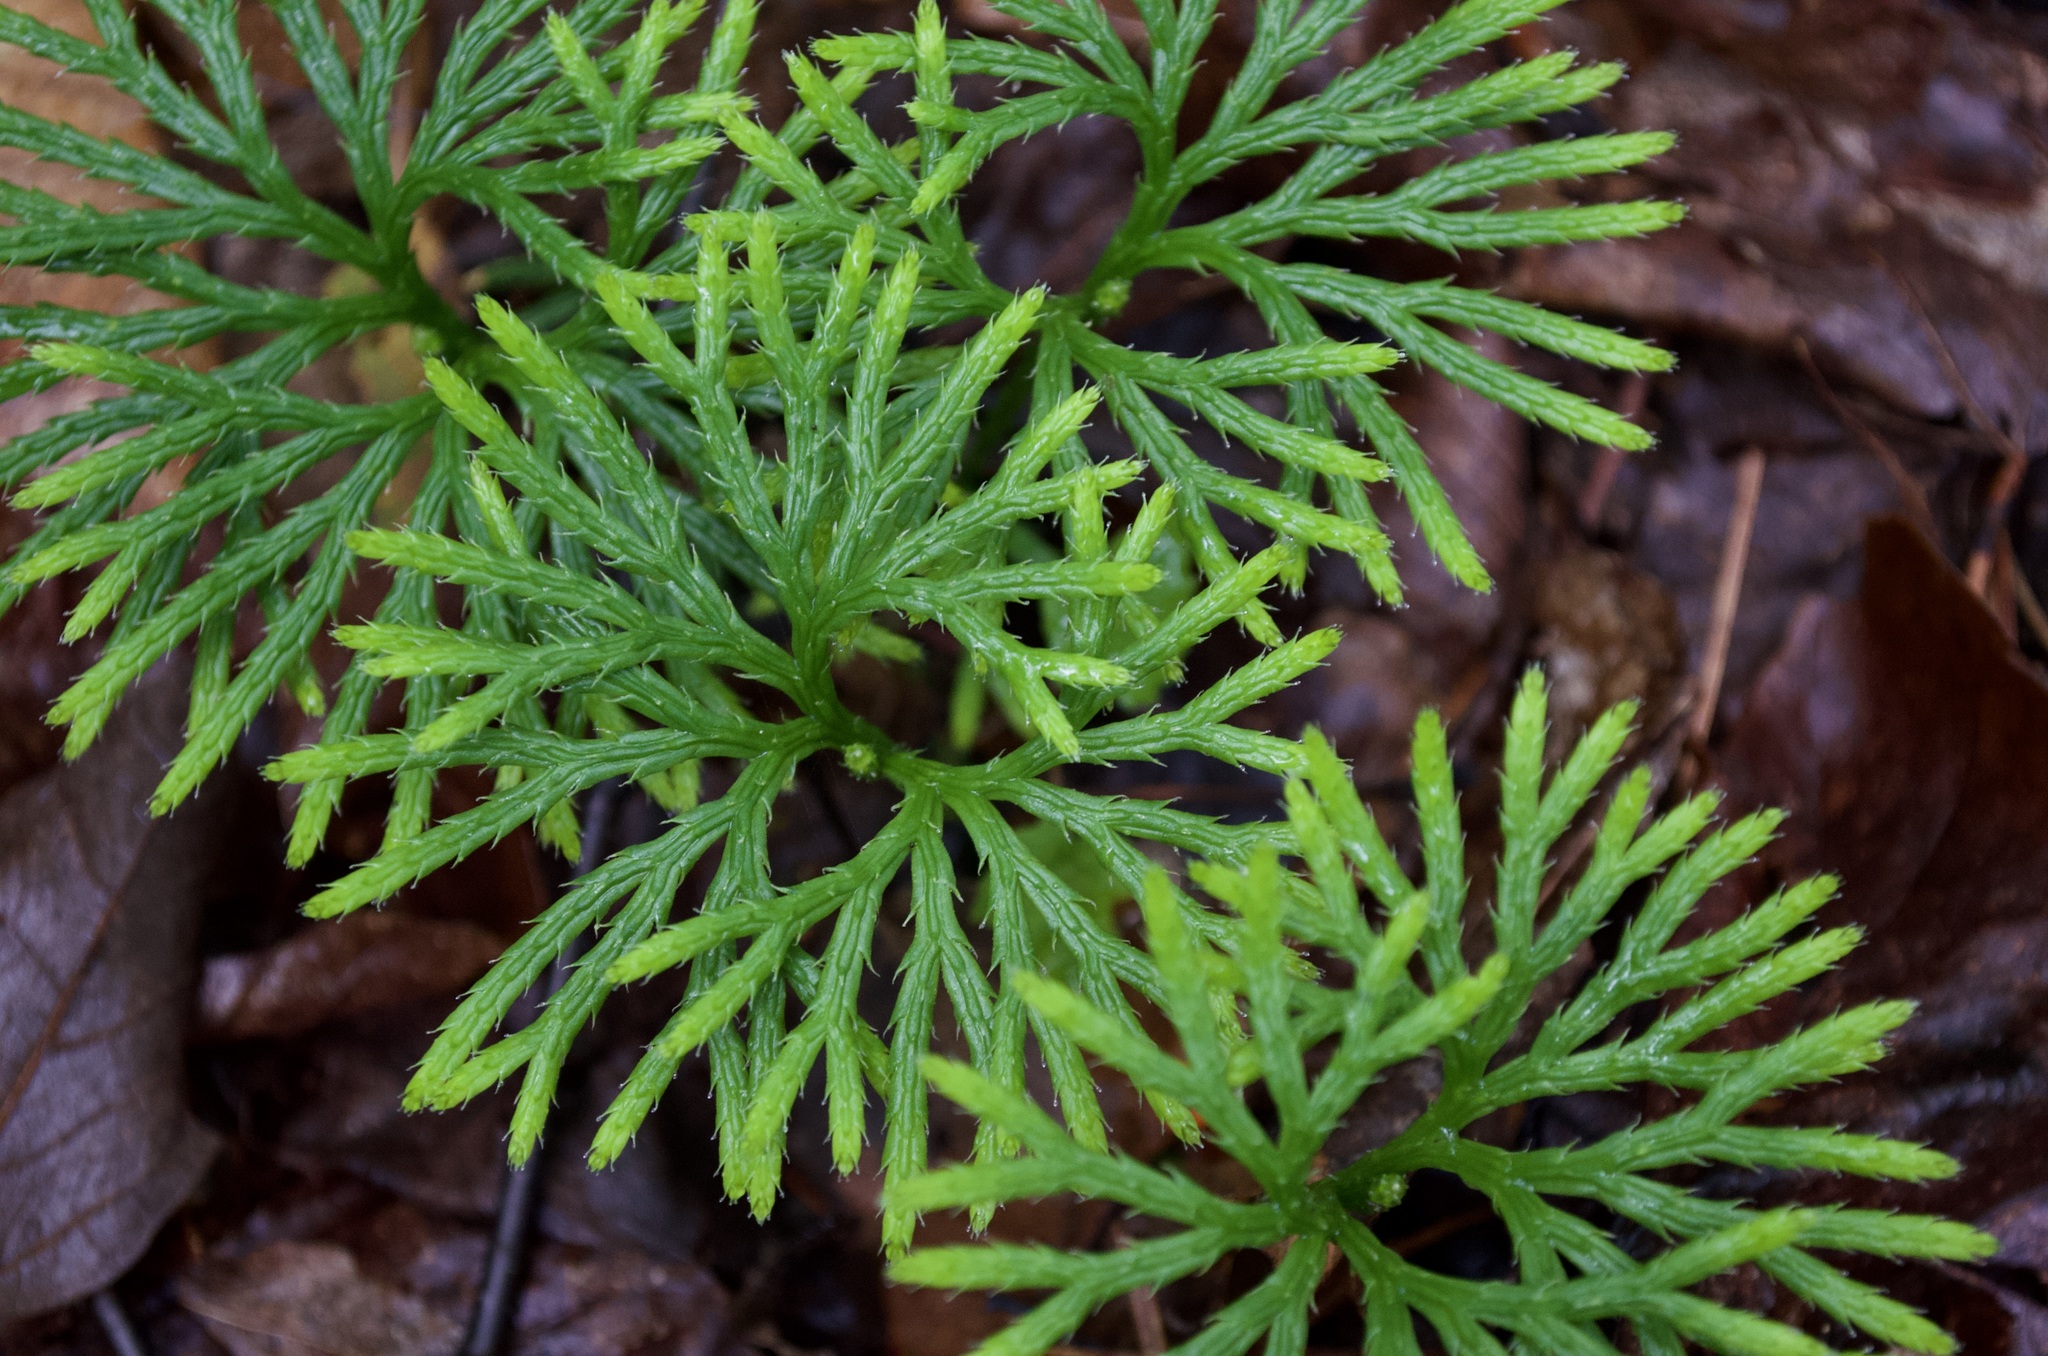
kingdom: Plantae
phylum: Tracheophyta
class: Lycopodiopsida
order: Lycopodiales
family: Lycopodiaceae
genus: Diphasiastrum
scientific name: Diphasiastrum digitatum
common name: Southern running-pine
